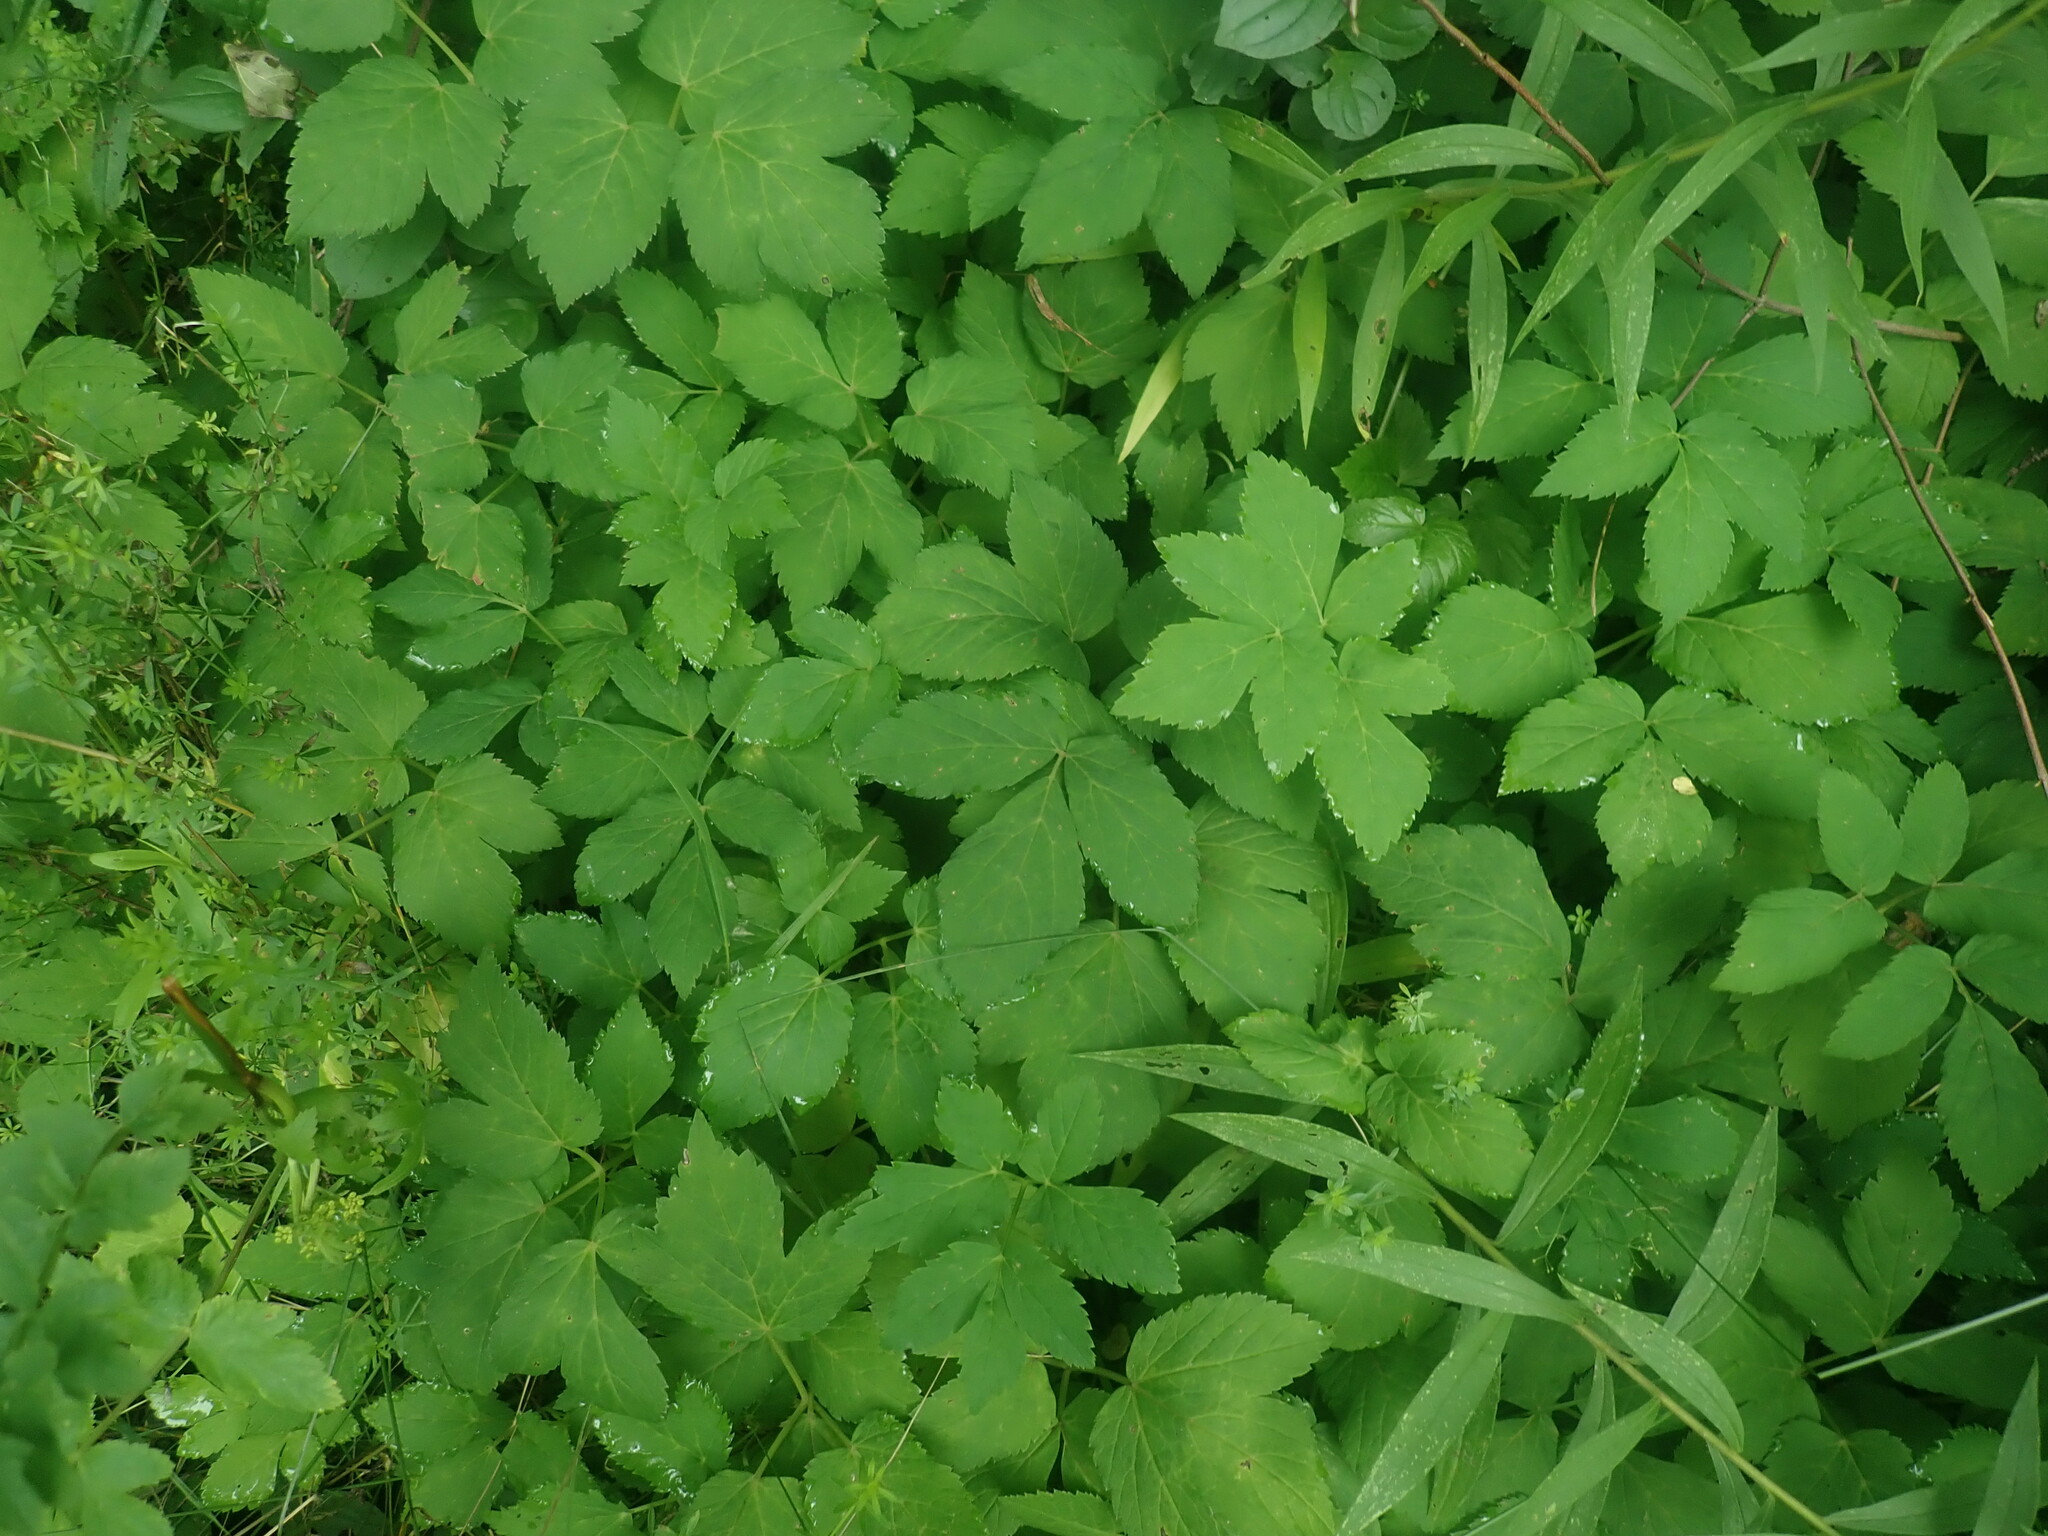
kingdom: Plantae
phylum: Tracheophyta
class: Magnoliopsida
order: Apiales
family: Apiaceae
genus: Aegopodium
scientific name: Aegopodium podagraria
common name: Ground-elder
